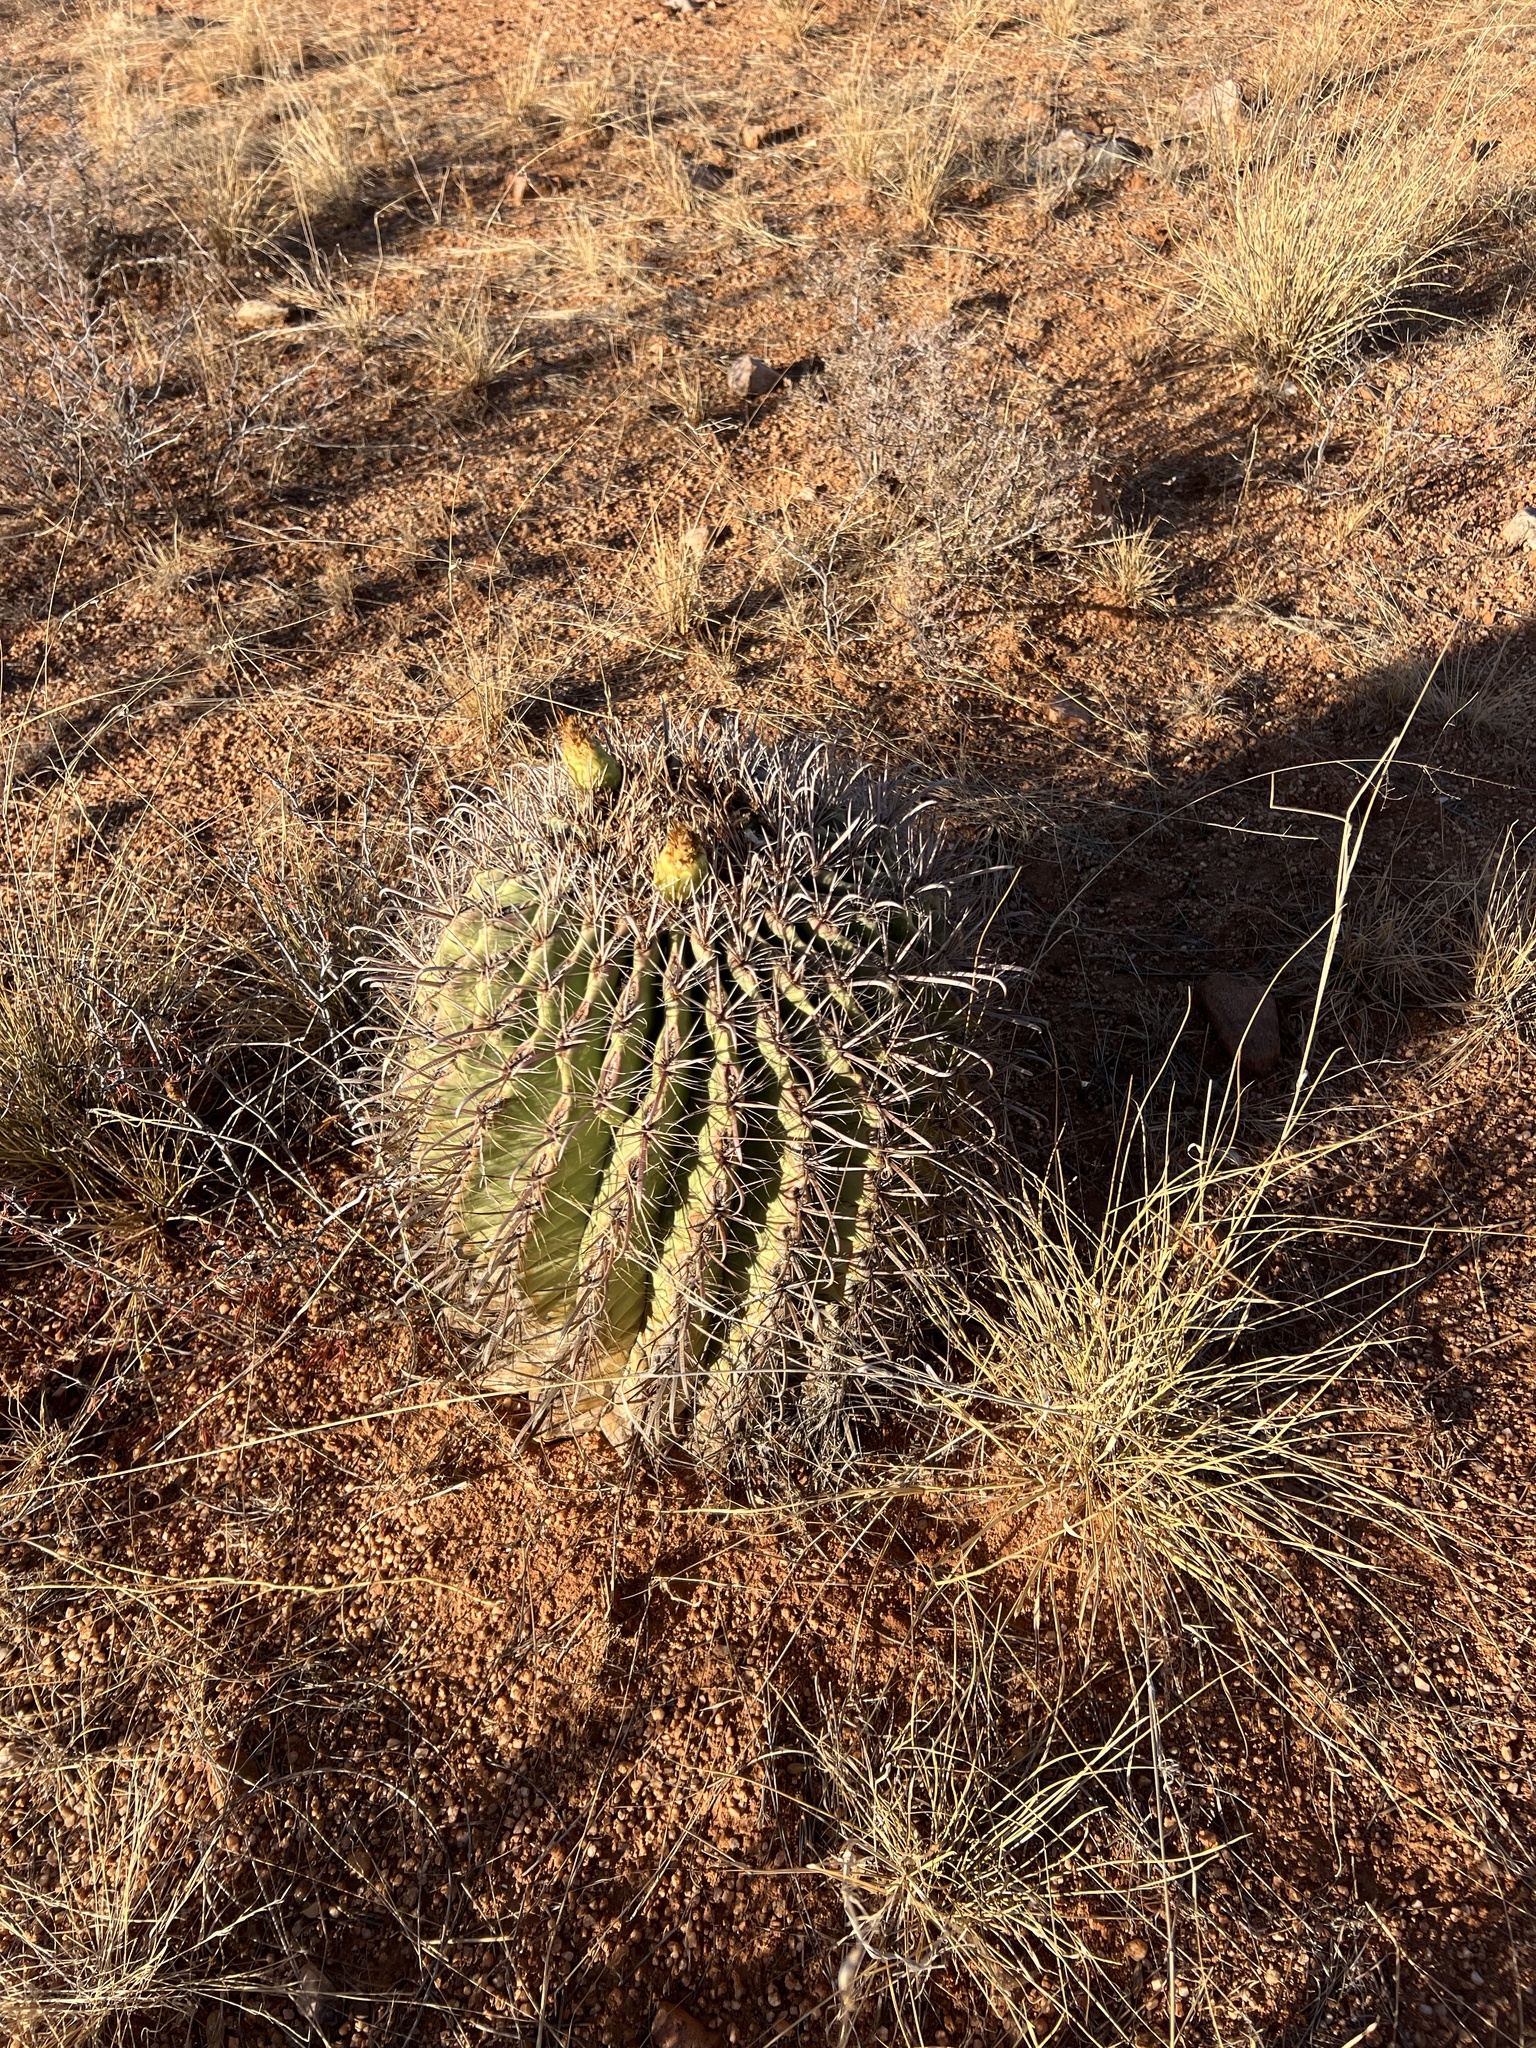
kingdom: Plantae
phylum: Tracheophyta
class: Magnoliopsida
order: Caryophyllales
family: Cactaceae
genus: Ferocactus
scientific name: Ferocactus wislizeni
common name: Candy barrel cactus
